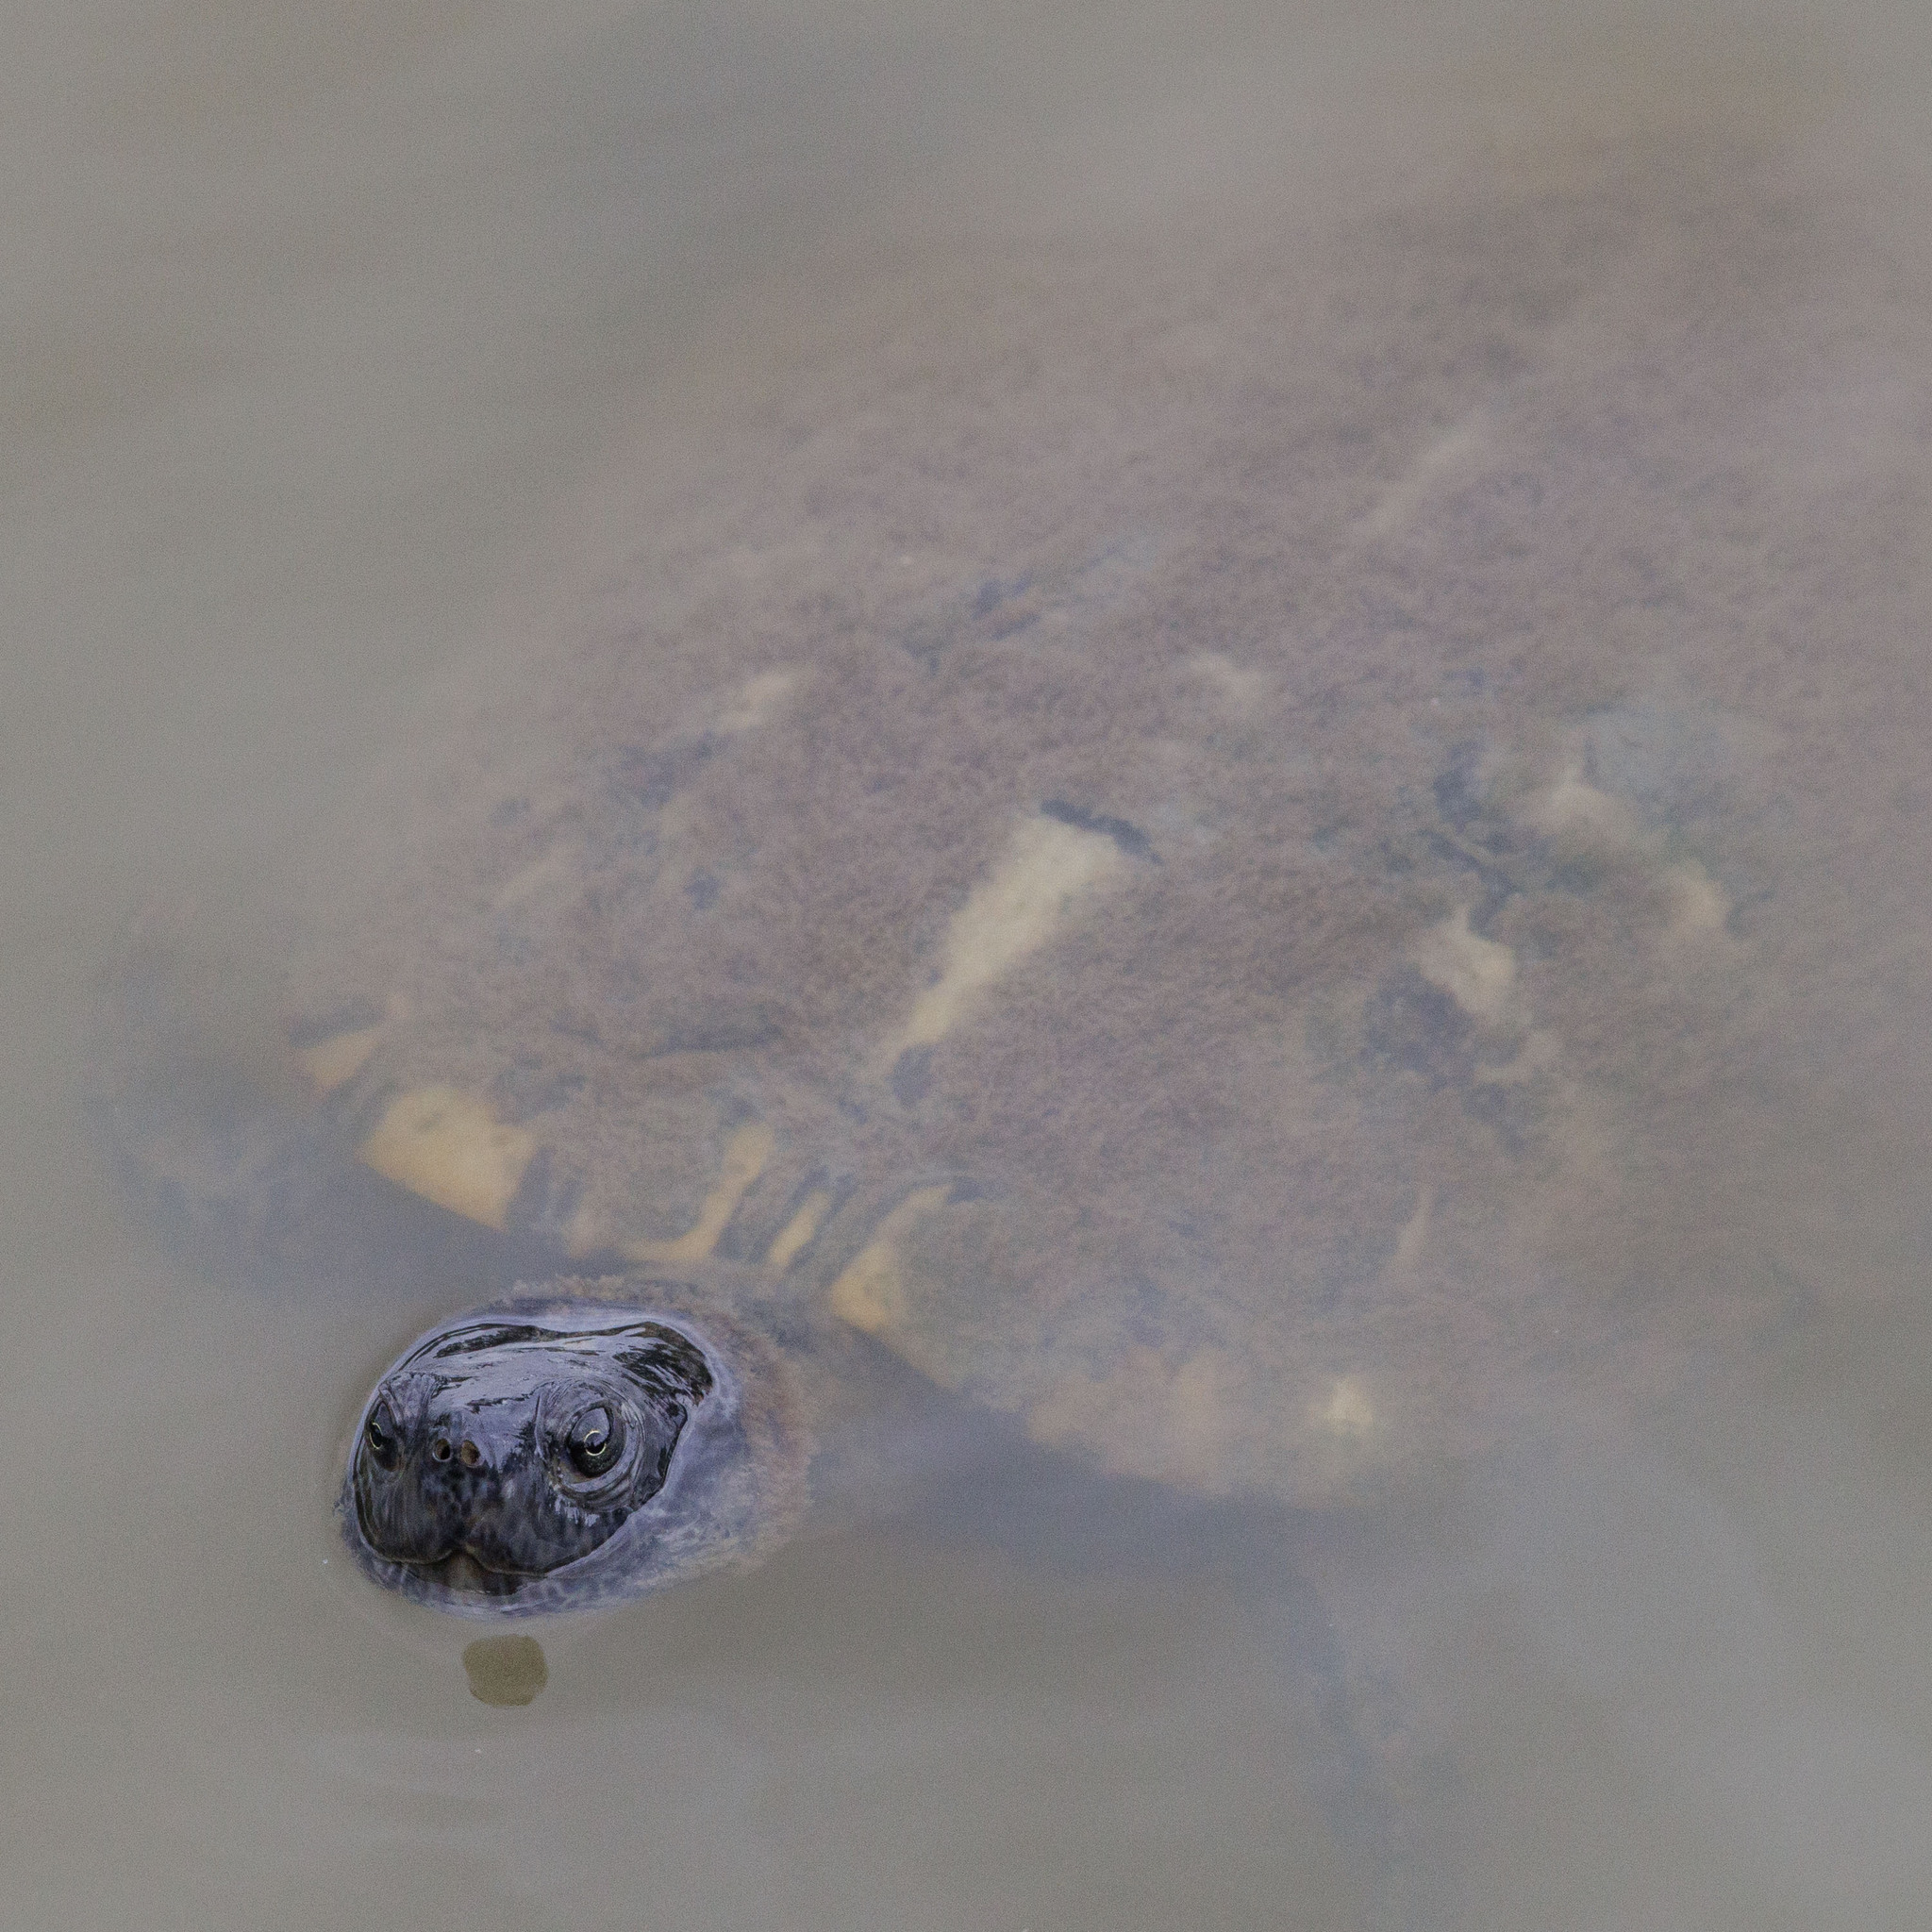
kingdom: Animalia
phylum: Chordata
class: Testudines
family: Emydidae
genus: Trachemys
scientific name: Trachemys scripta
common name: Slider
